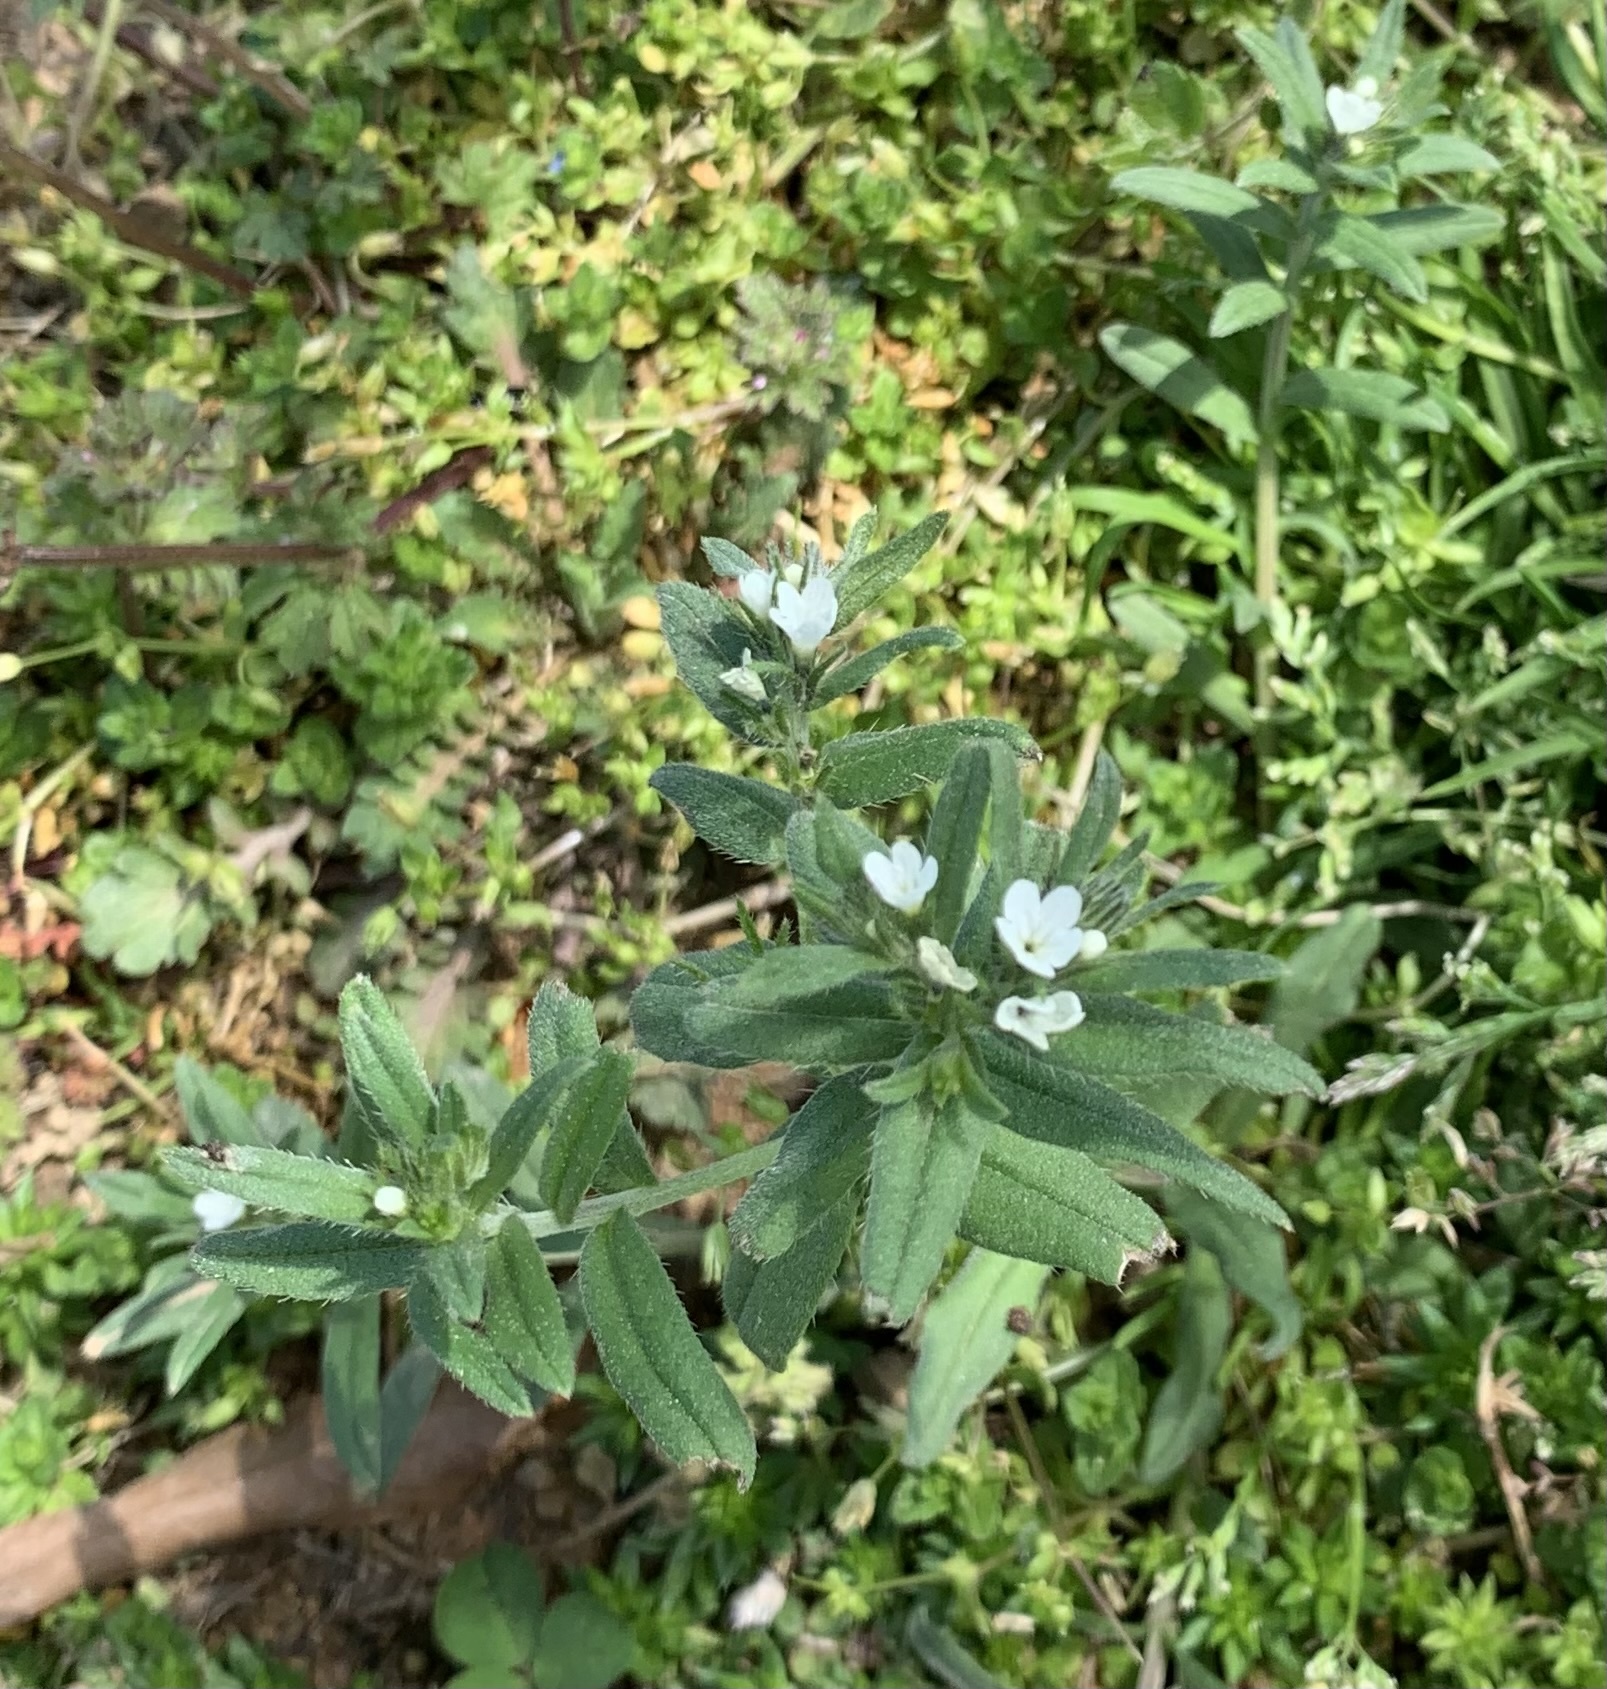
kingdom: Plantae
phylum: Tracheophyta
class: Magnoliopsida
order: Boraginales
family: Boraginaceae
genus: Buglossoides
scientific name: Buglossoides arvensis
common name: Corn gromwell
